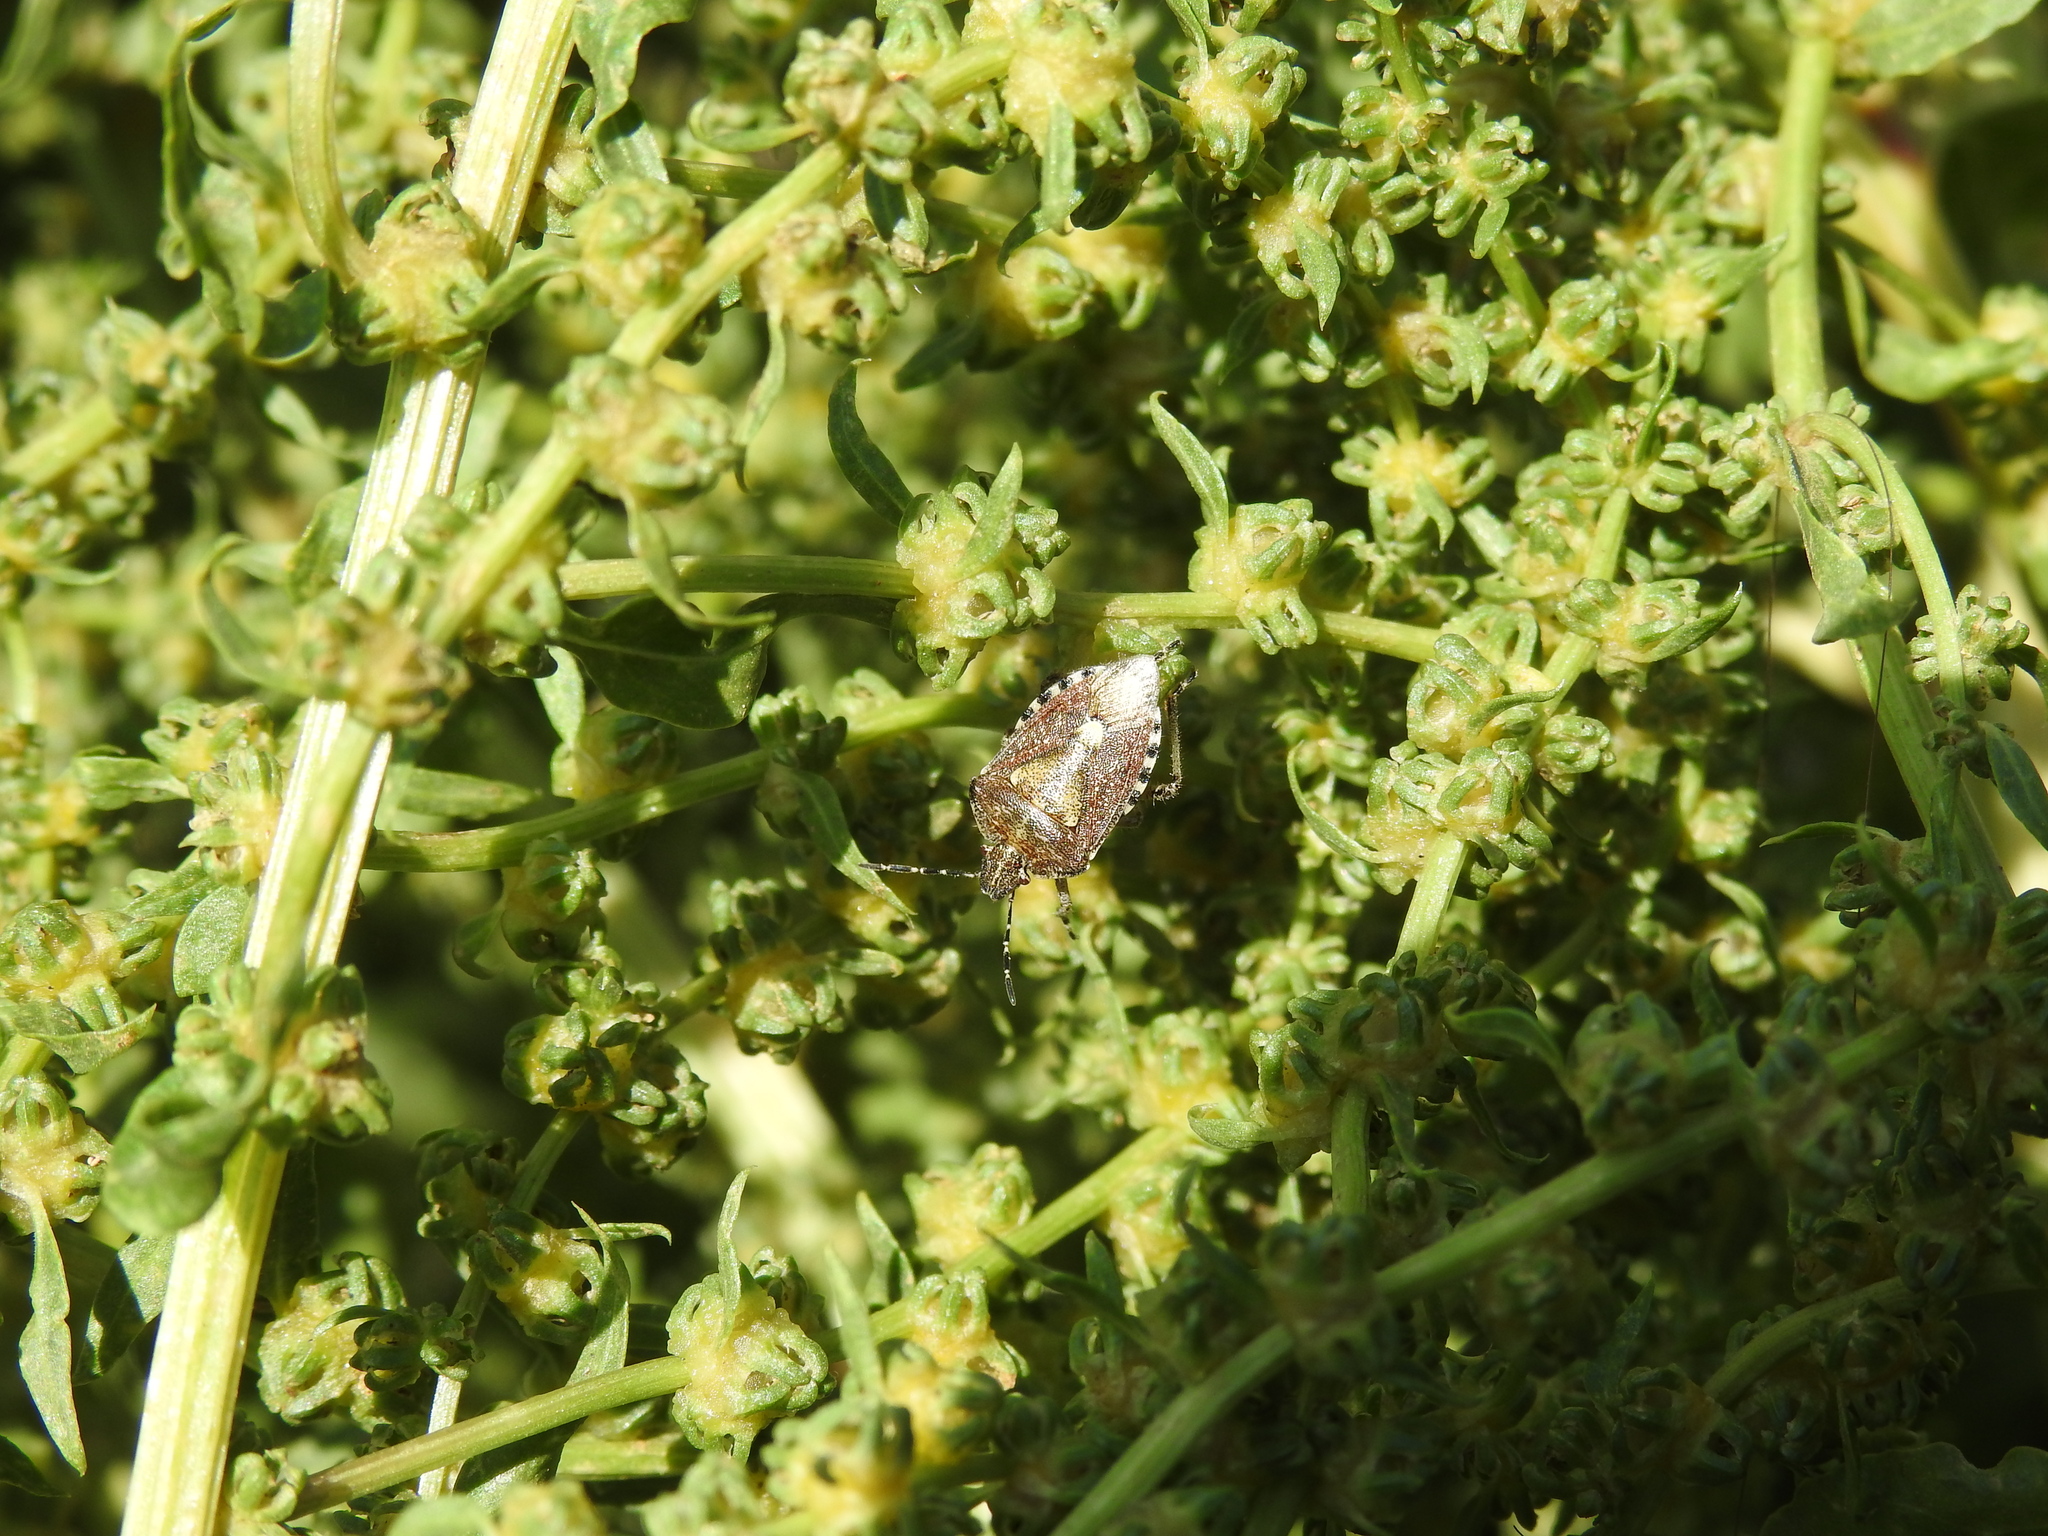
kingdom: Animalia
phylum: Arthropoda
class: Insecta
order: Hemiptera
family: Pentatomidae
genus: Dolycoris
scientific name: Dolycoris baccarum
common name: Sloe bug
